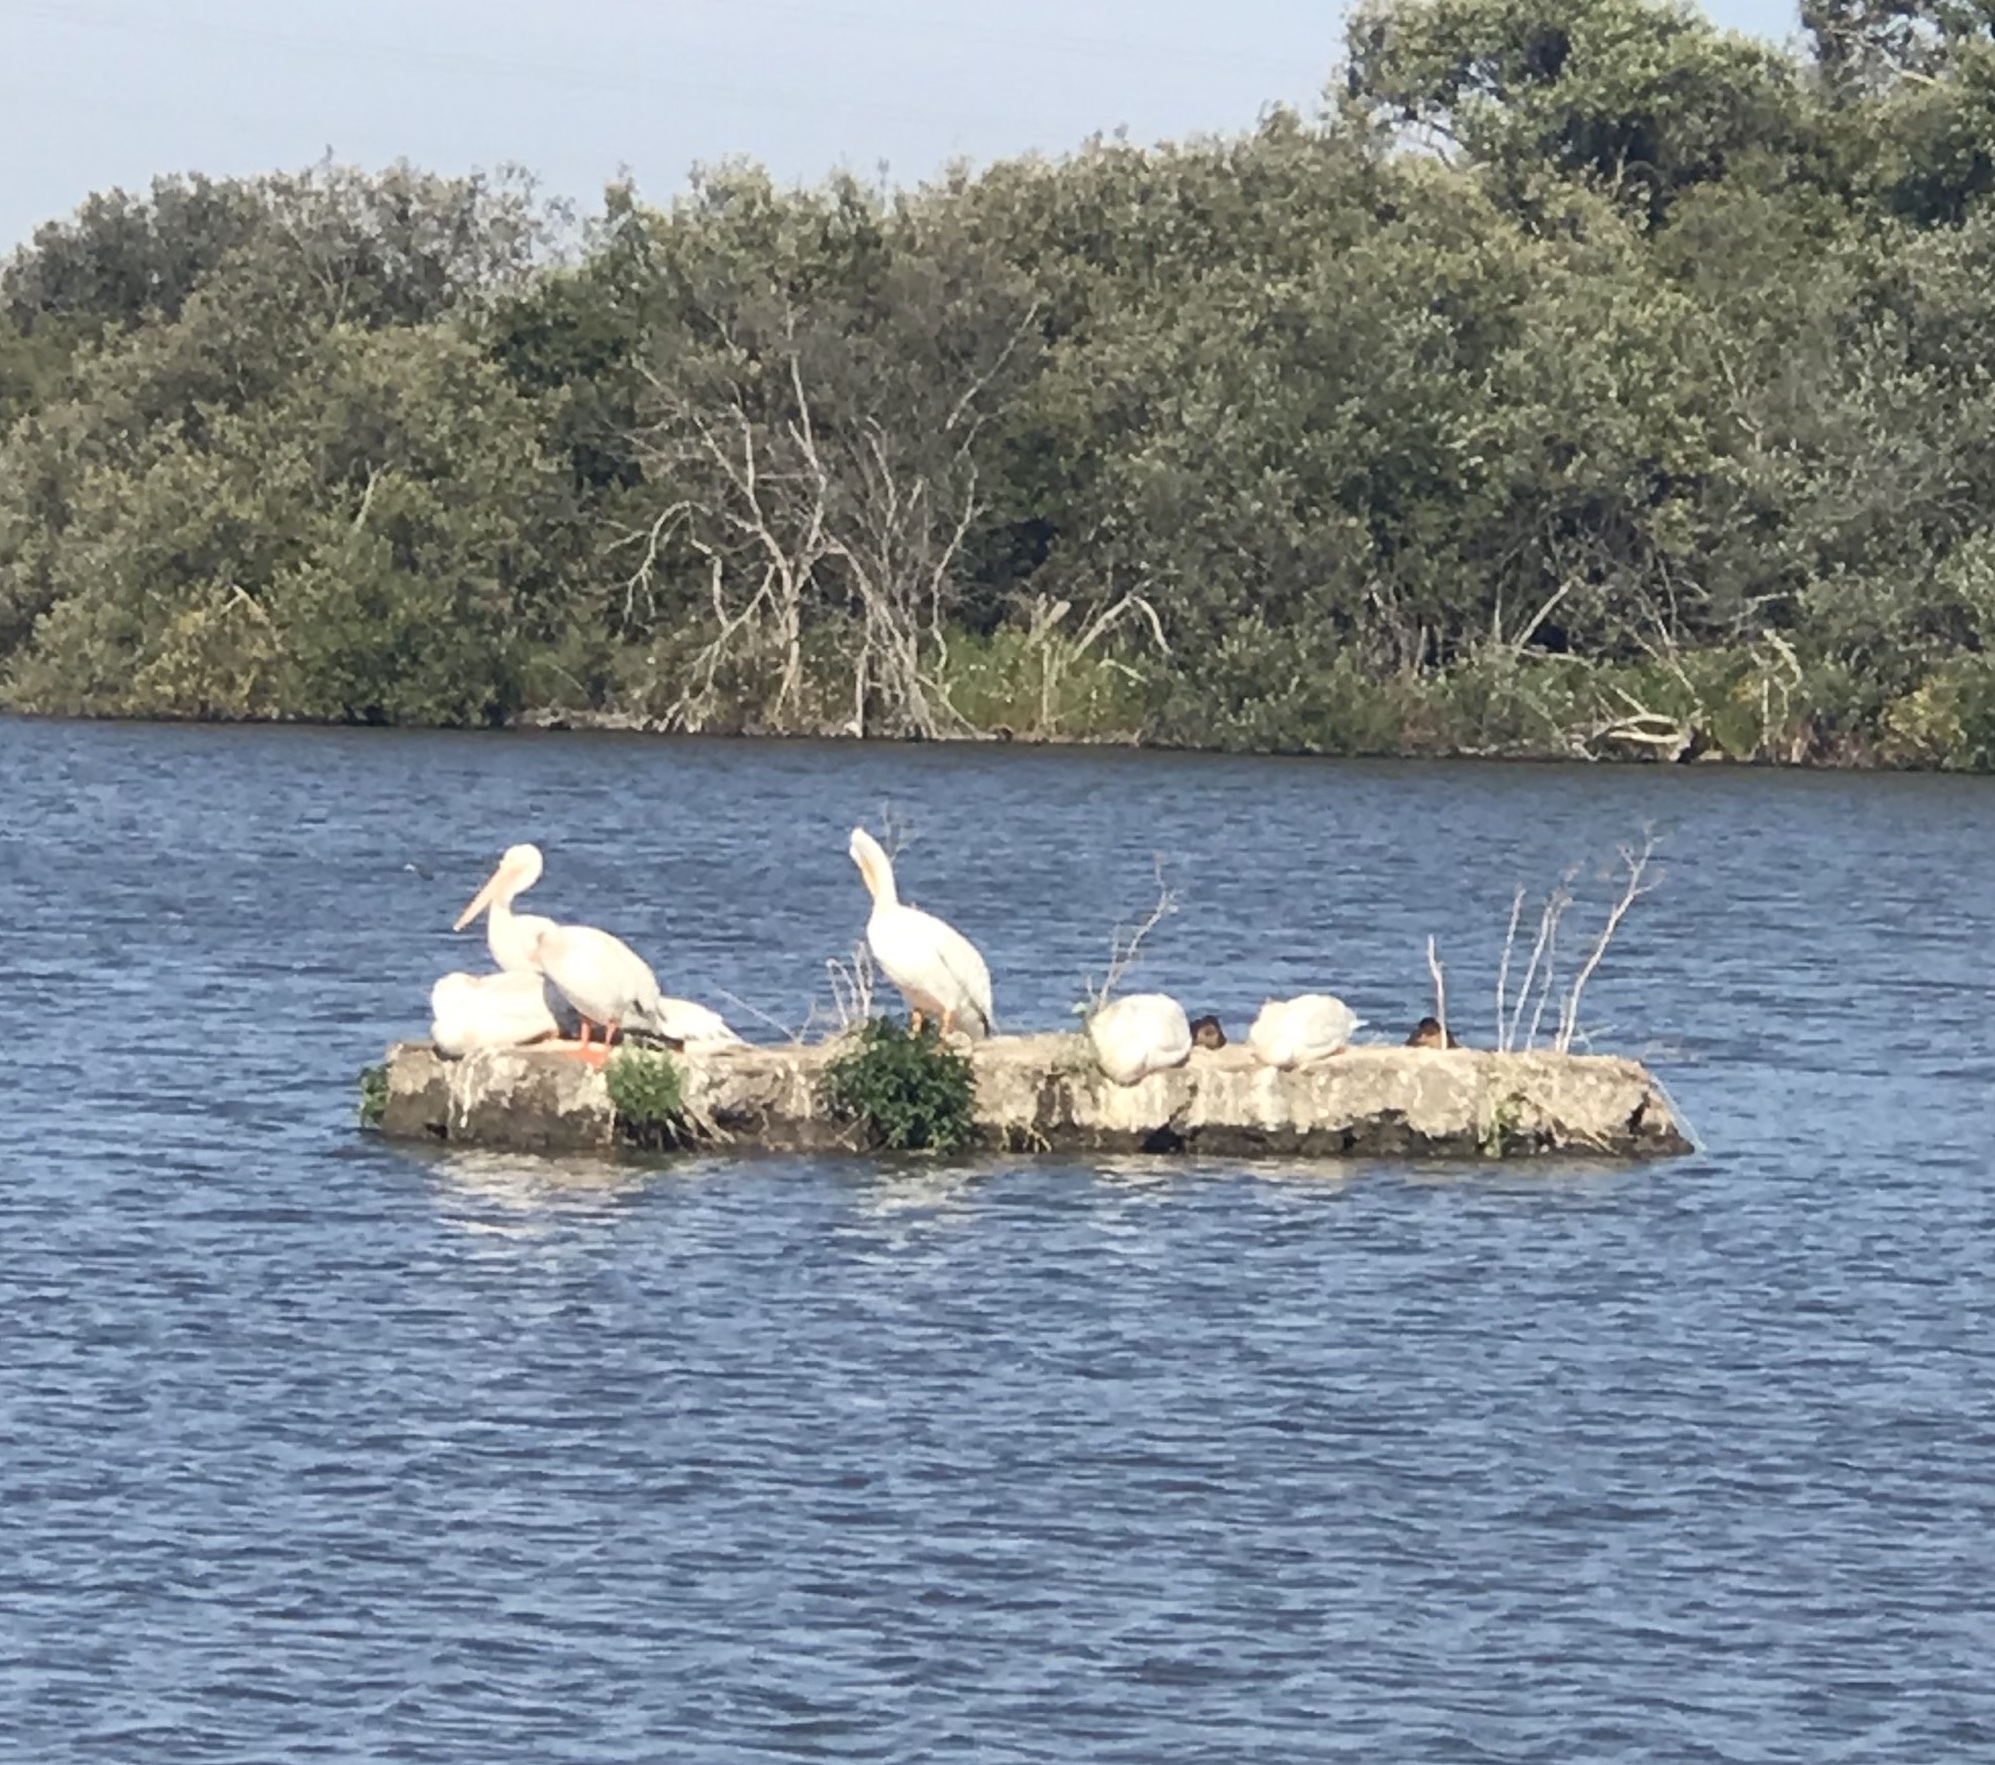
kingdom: Animalia
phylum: Chordata
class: Aves
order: Pelecaniformes
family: Pelecanidae
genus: Pelecanus
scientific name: Pelecanus erythrorhynchos
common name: American white pelican
